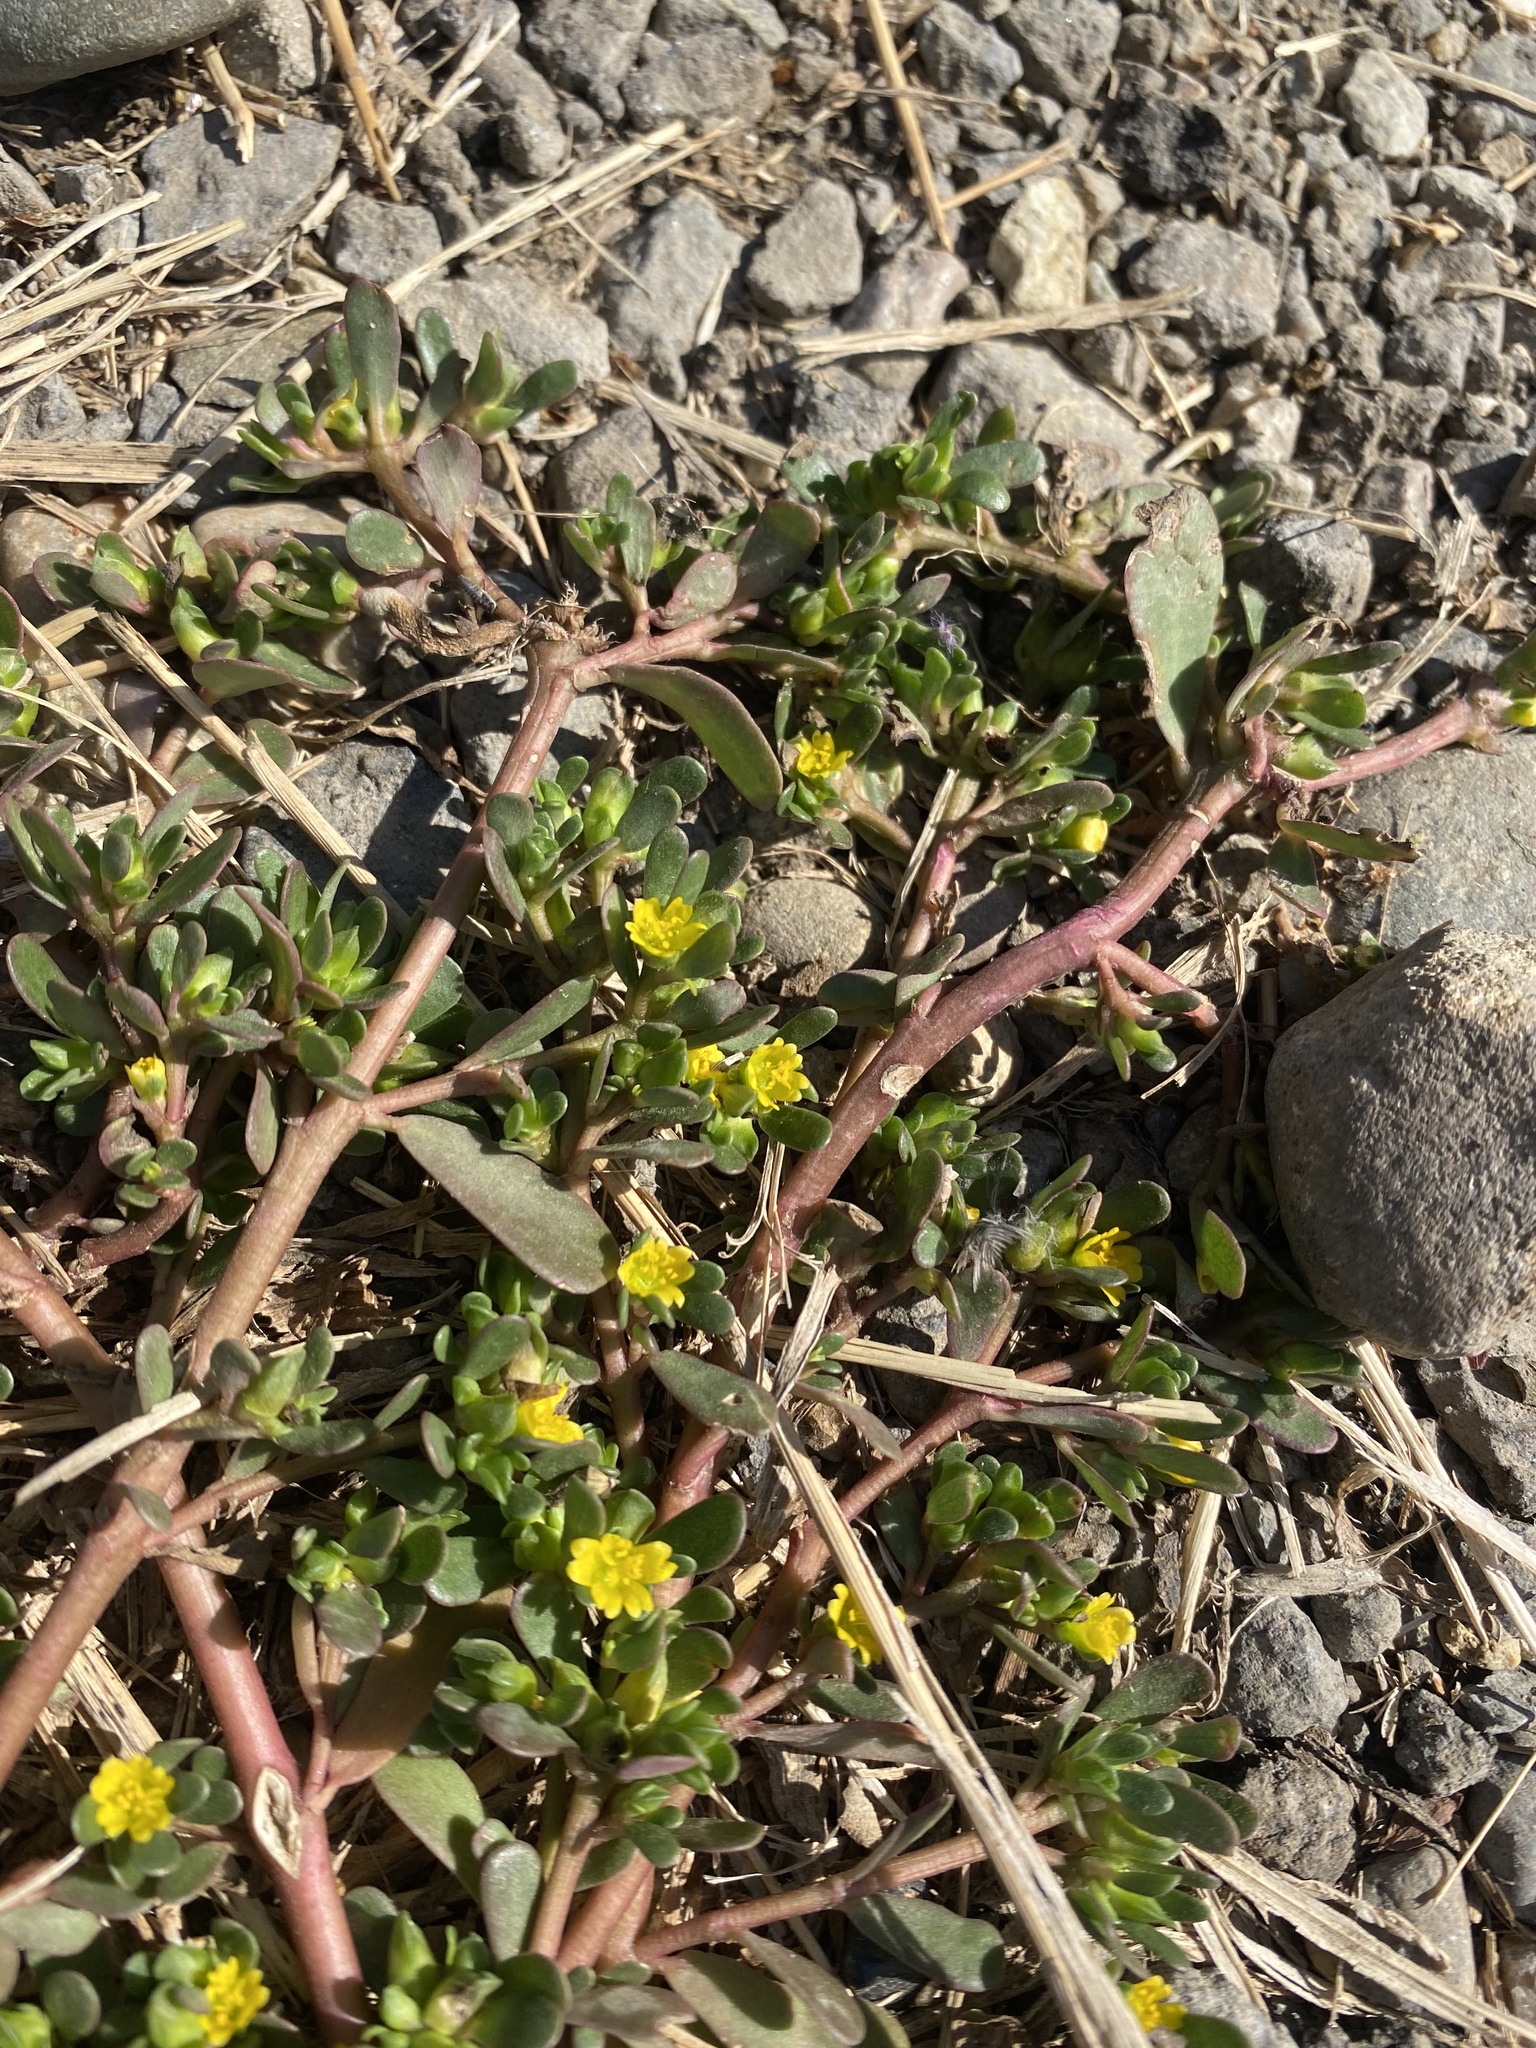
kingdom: Plantae
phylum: Tracheophyta
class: Magnoliopsida
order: Caryophyllales
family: Portulacaceae
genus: Portulaca
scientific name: Portulaca oleracea
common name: Common purslane
